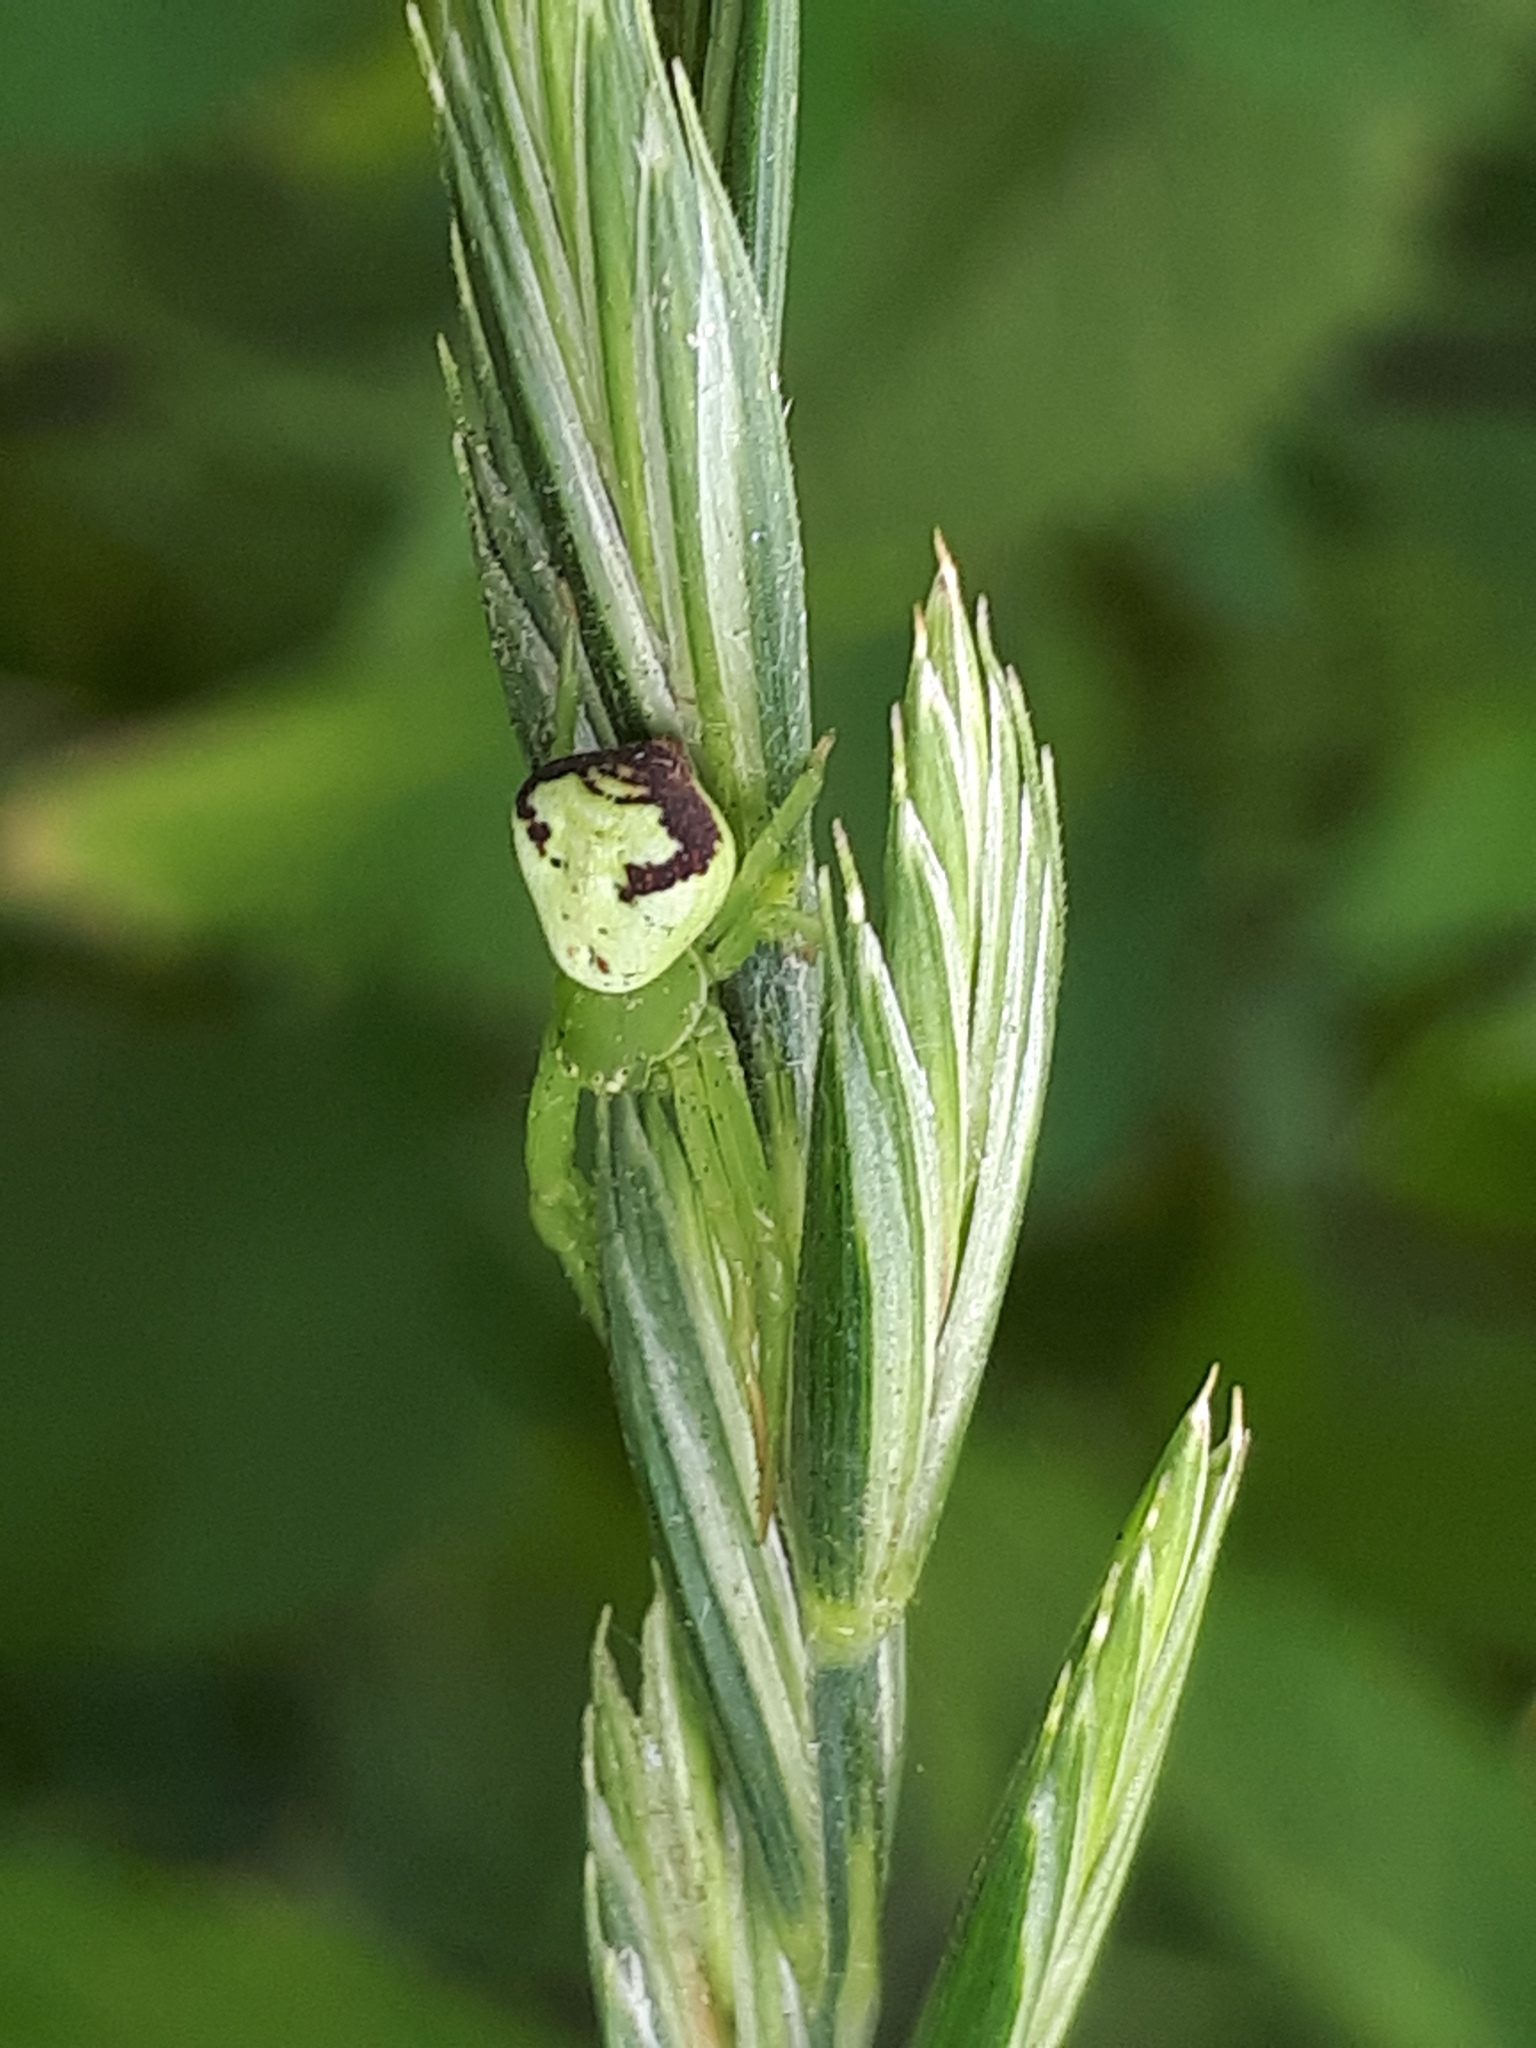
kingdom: Animalia
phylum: Arthropoda
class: Arachnida
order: Araneae
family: Thomisidae
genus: Ebrechtella
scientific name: Ebrechtella tricuspidata
